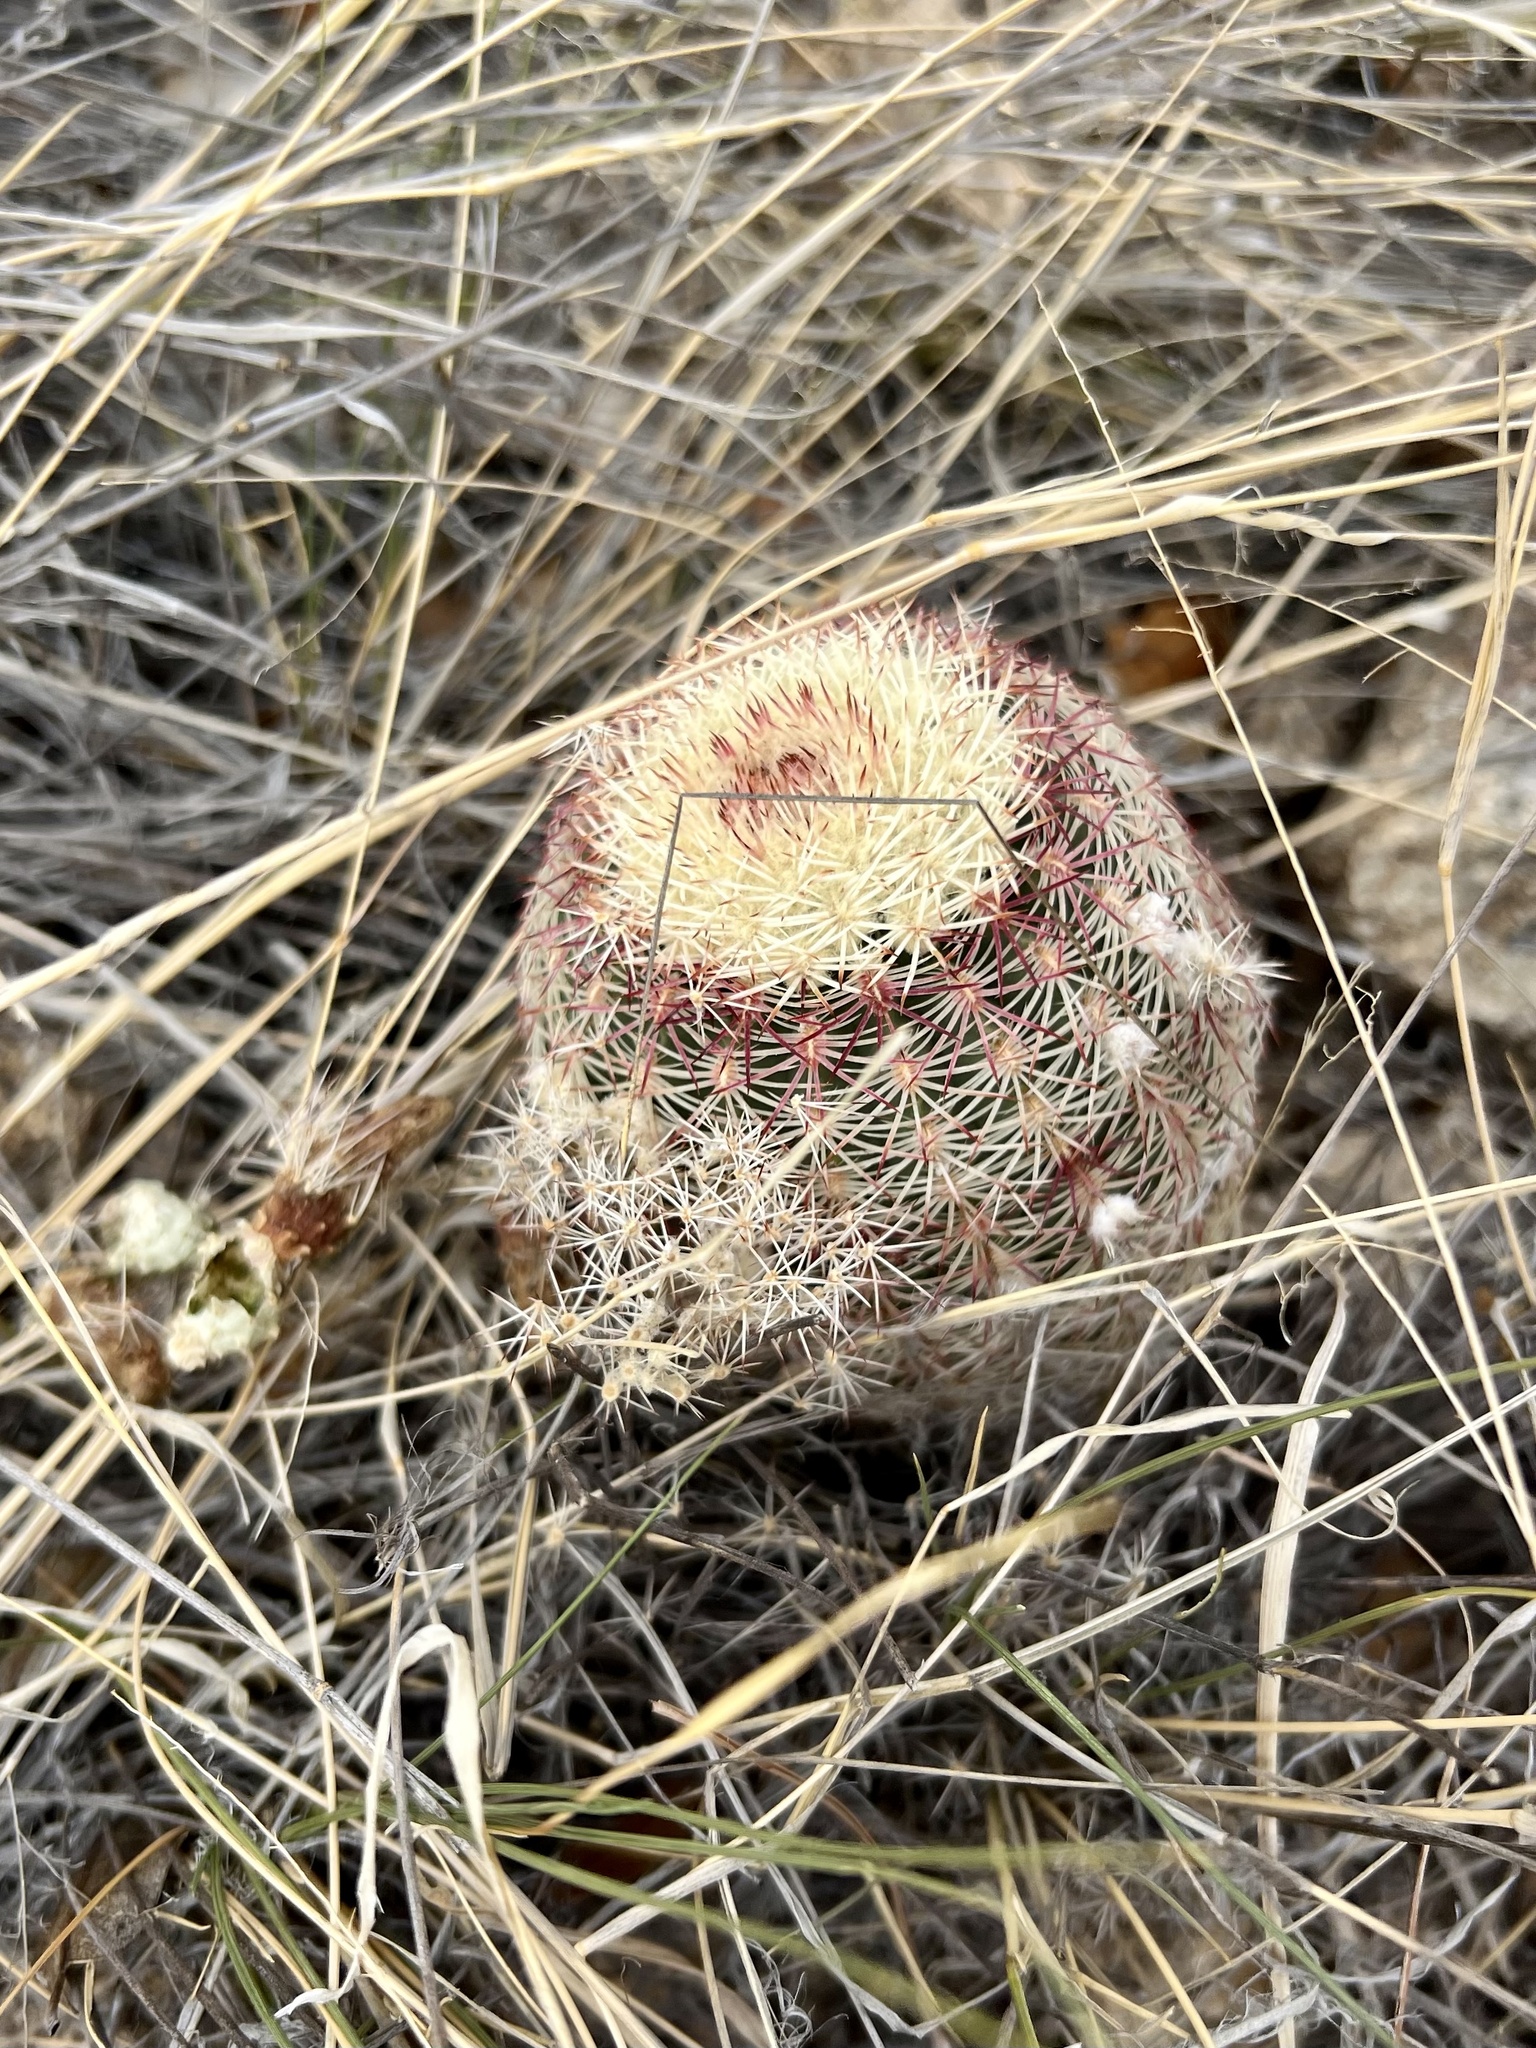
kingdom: Plantae
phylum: Tracheophyta
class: Magnoliopsida
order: Caryophyllales
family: Cactaceae
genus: Echinocereus
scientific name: Echinocereus rigidissimus
